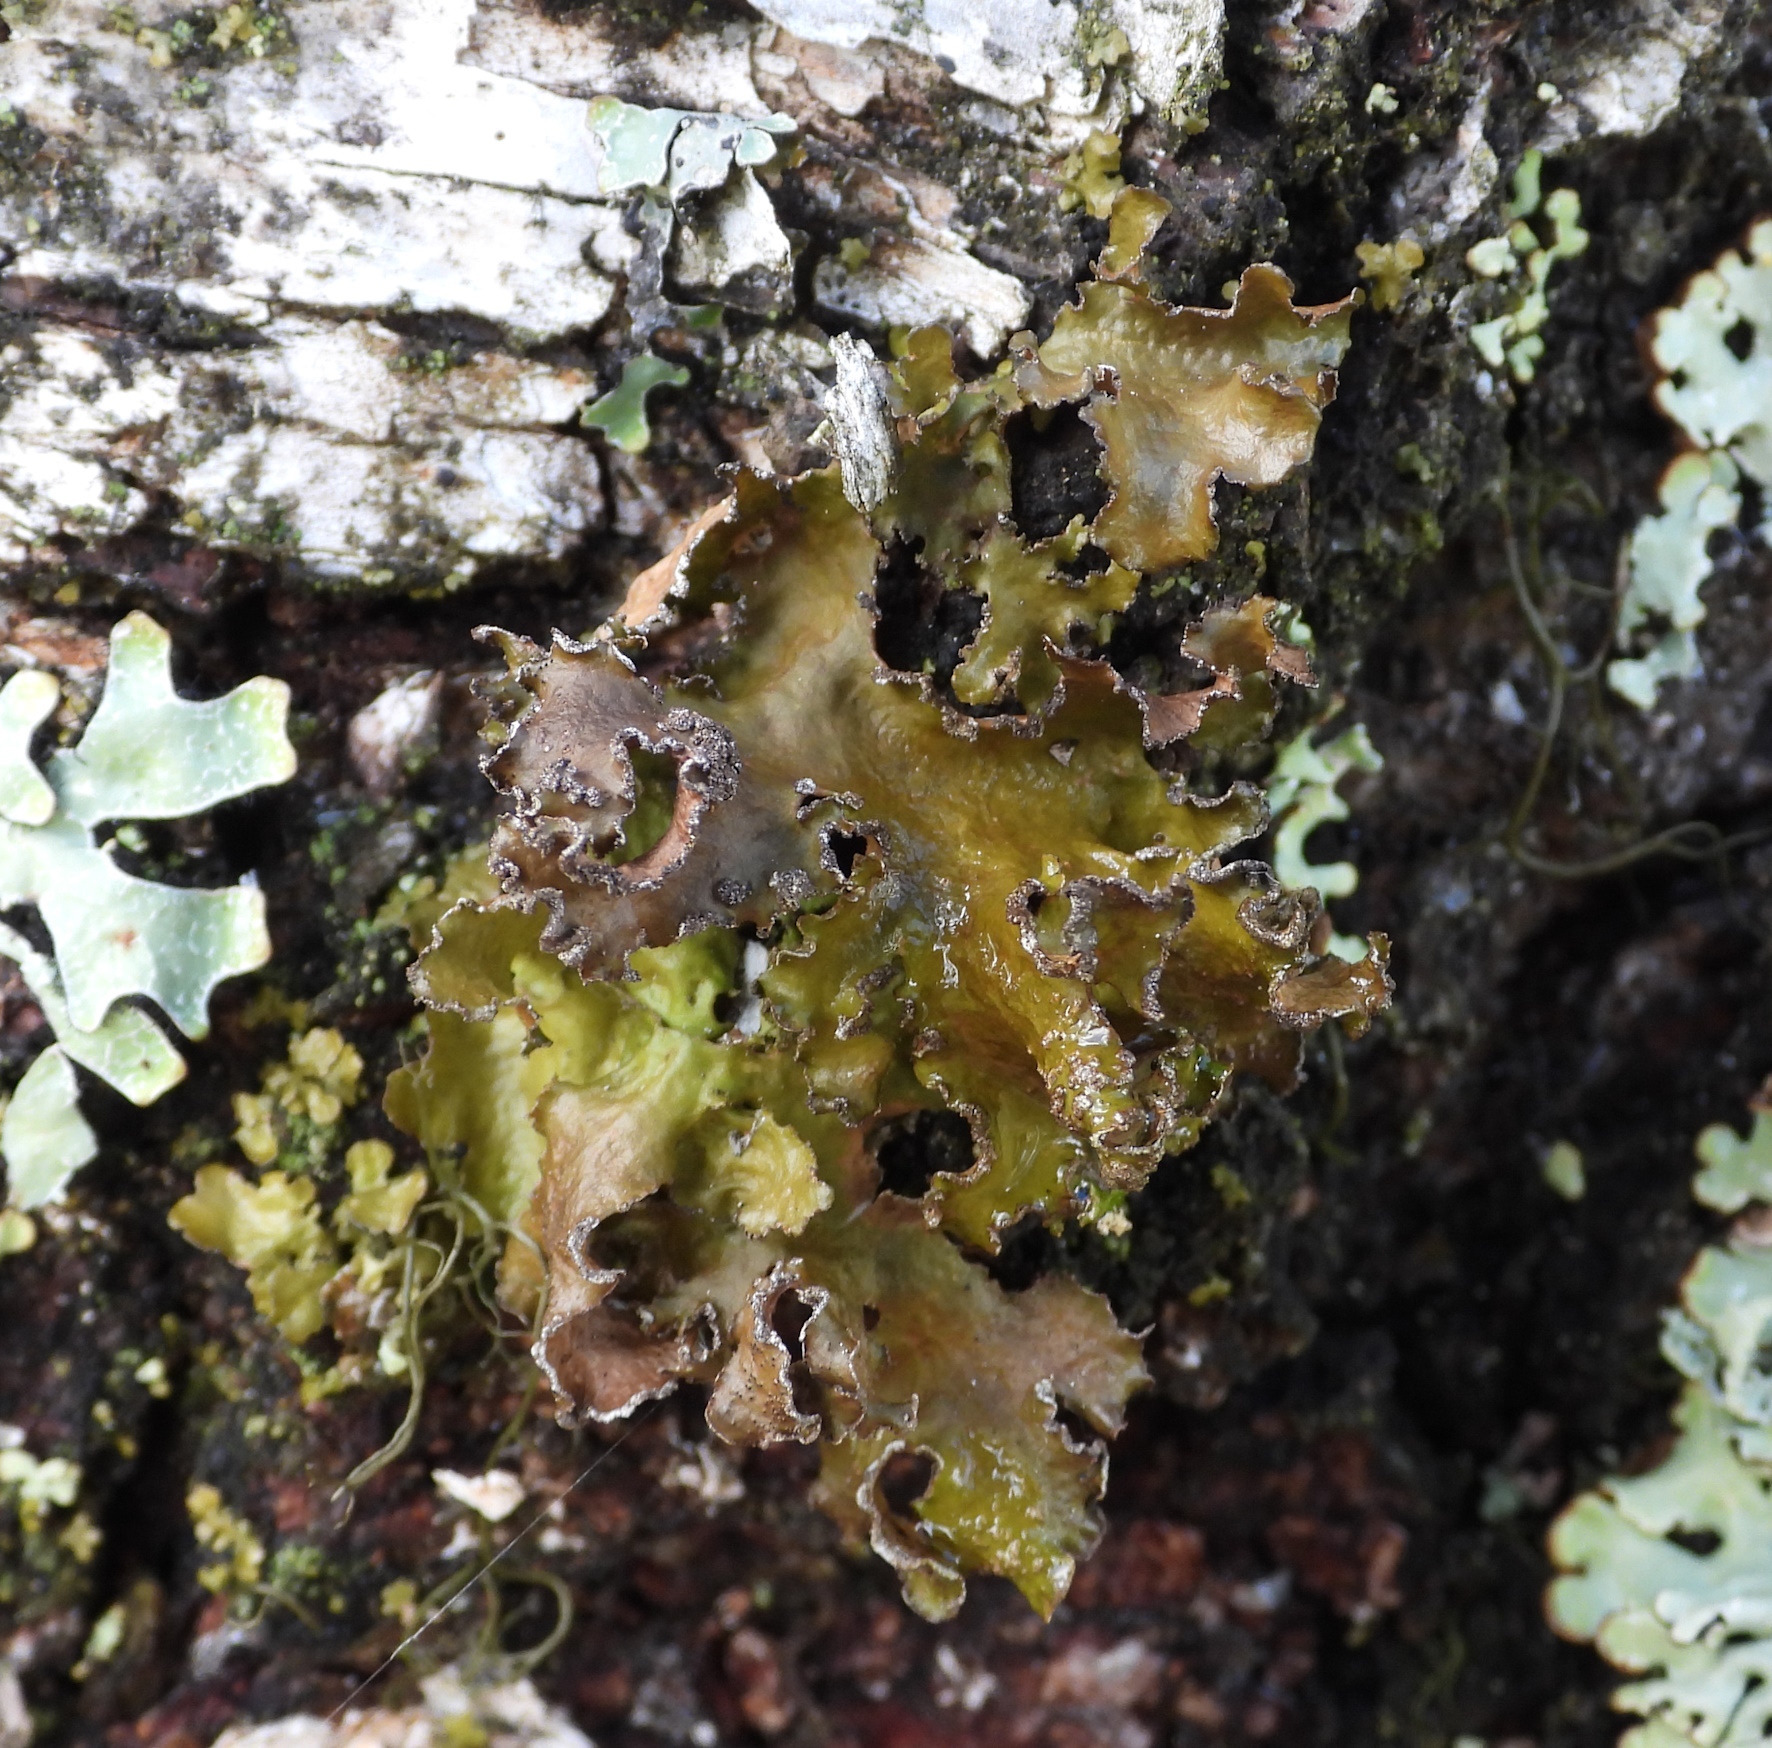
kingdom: Fungi
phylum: Ascomycota
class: Lecanoromycetes
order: Lecanorales
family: Parmeliaceae
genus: Nephromopsis
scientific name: Nephromopsis chlorophylla
